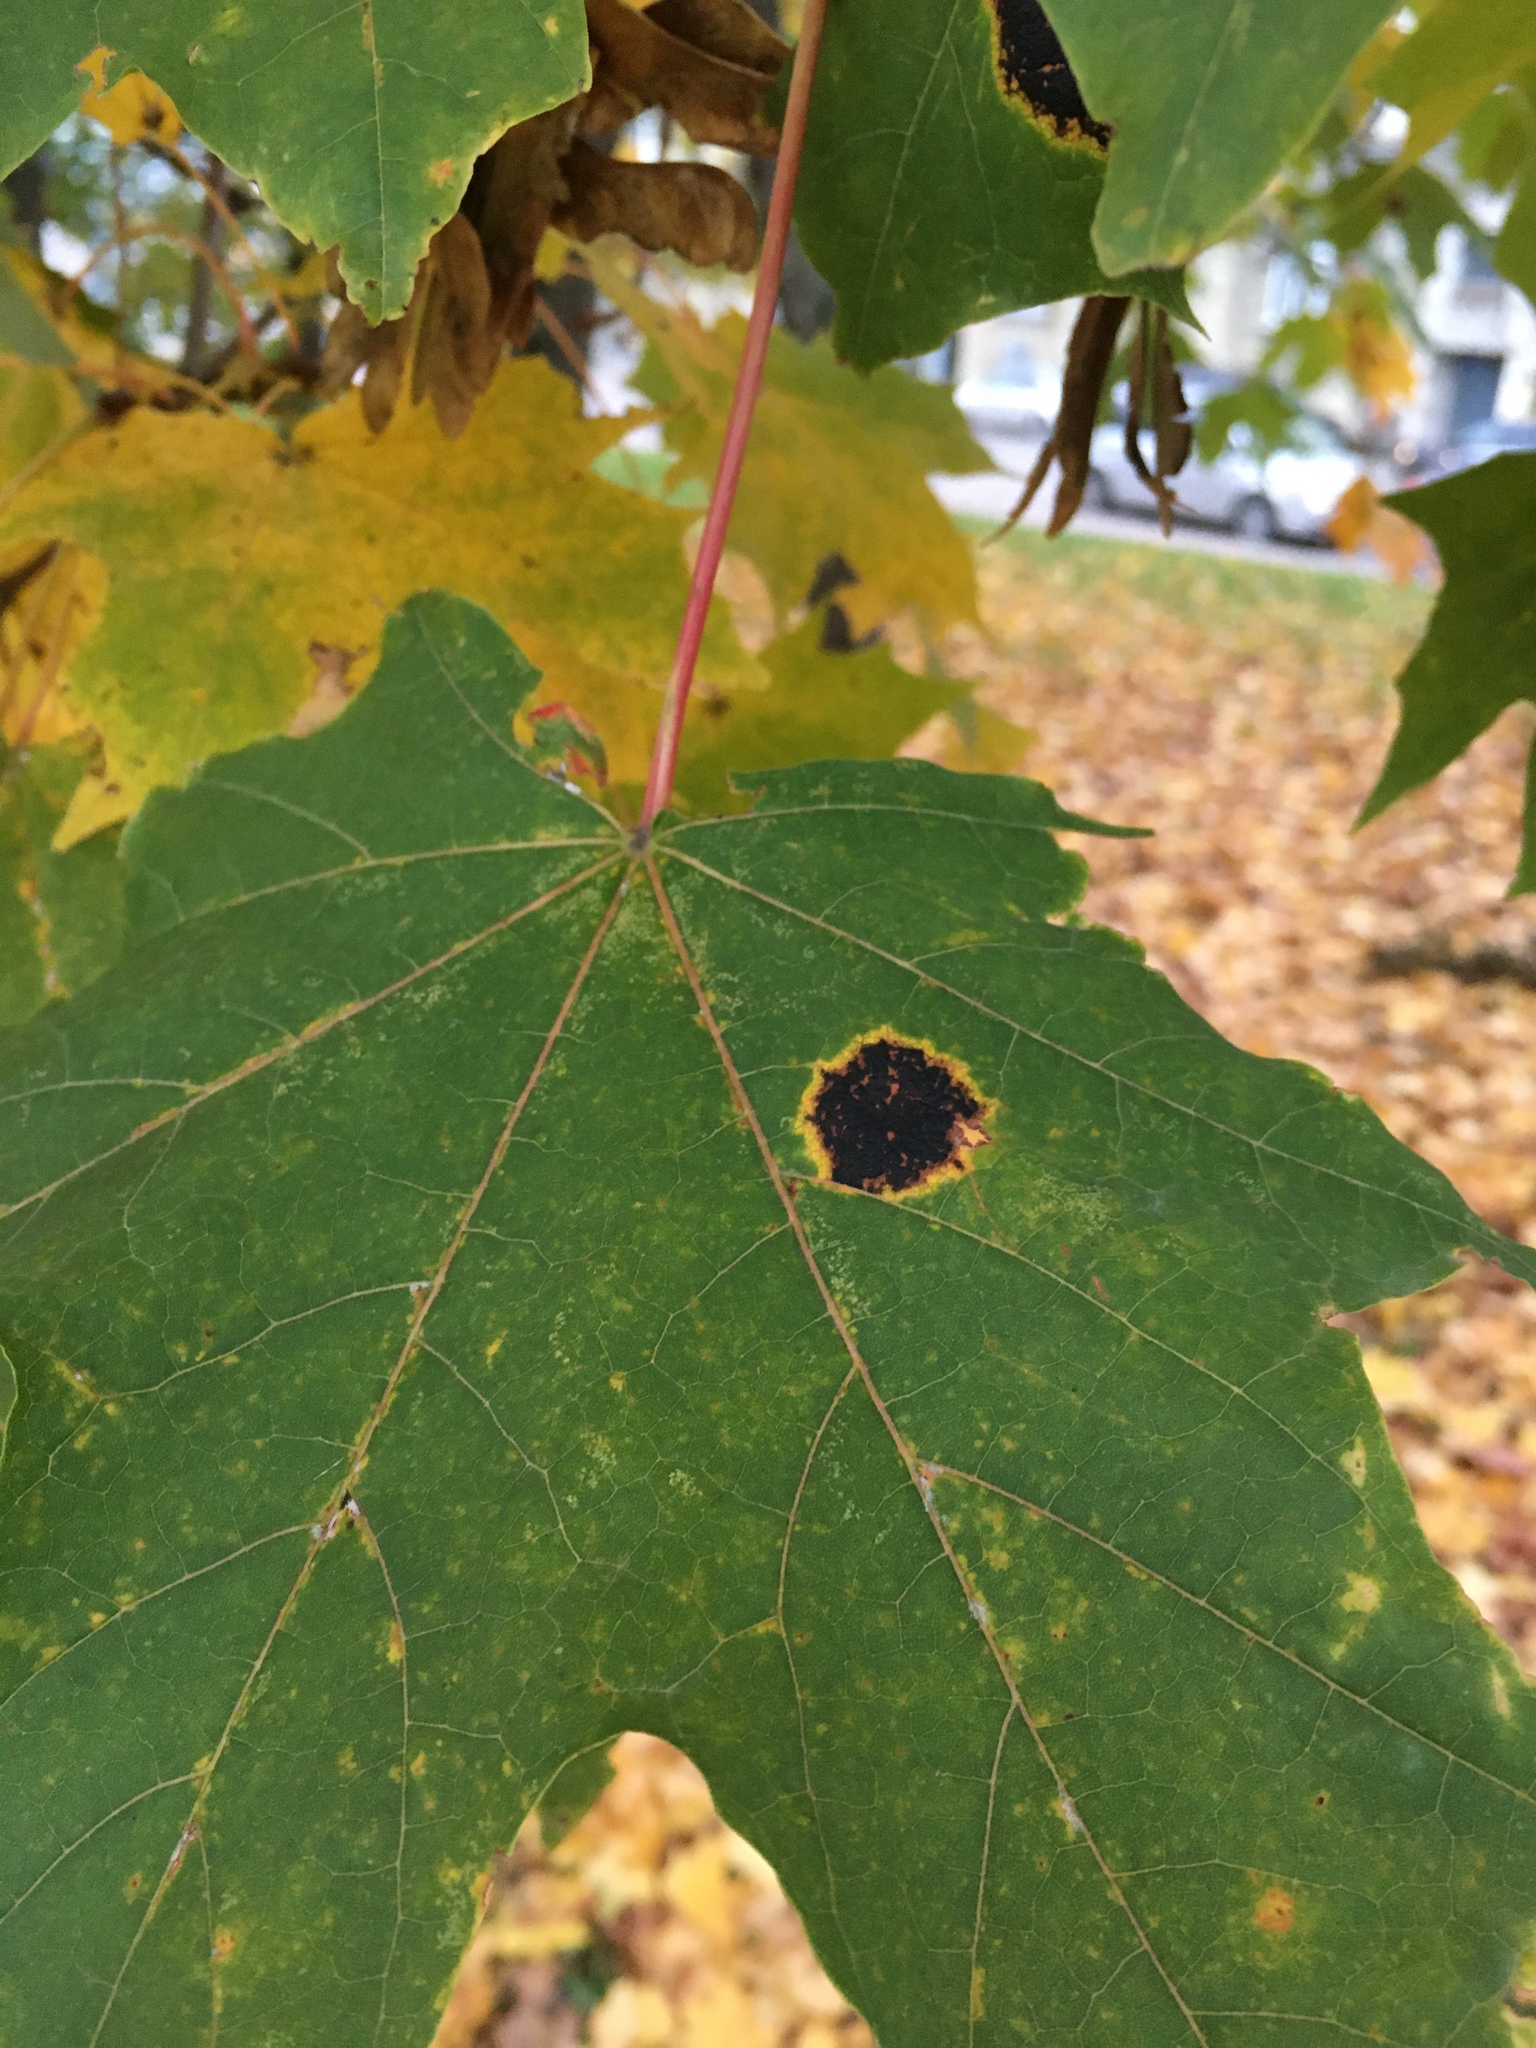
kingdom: Fungi
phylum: Ascomycota
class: Leotiomycetes
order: Rhytismatales
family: Rhytismataceae
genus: Rhytisma
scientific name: Rhytisma acerinum
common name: European tar spot
